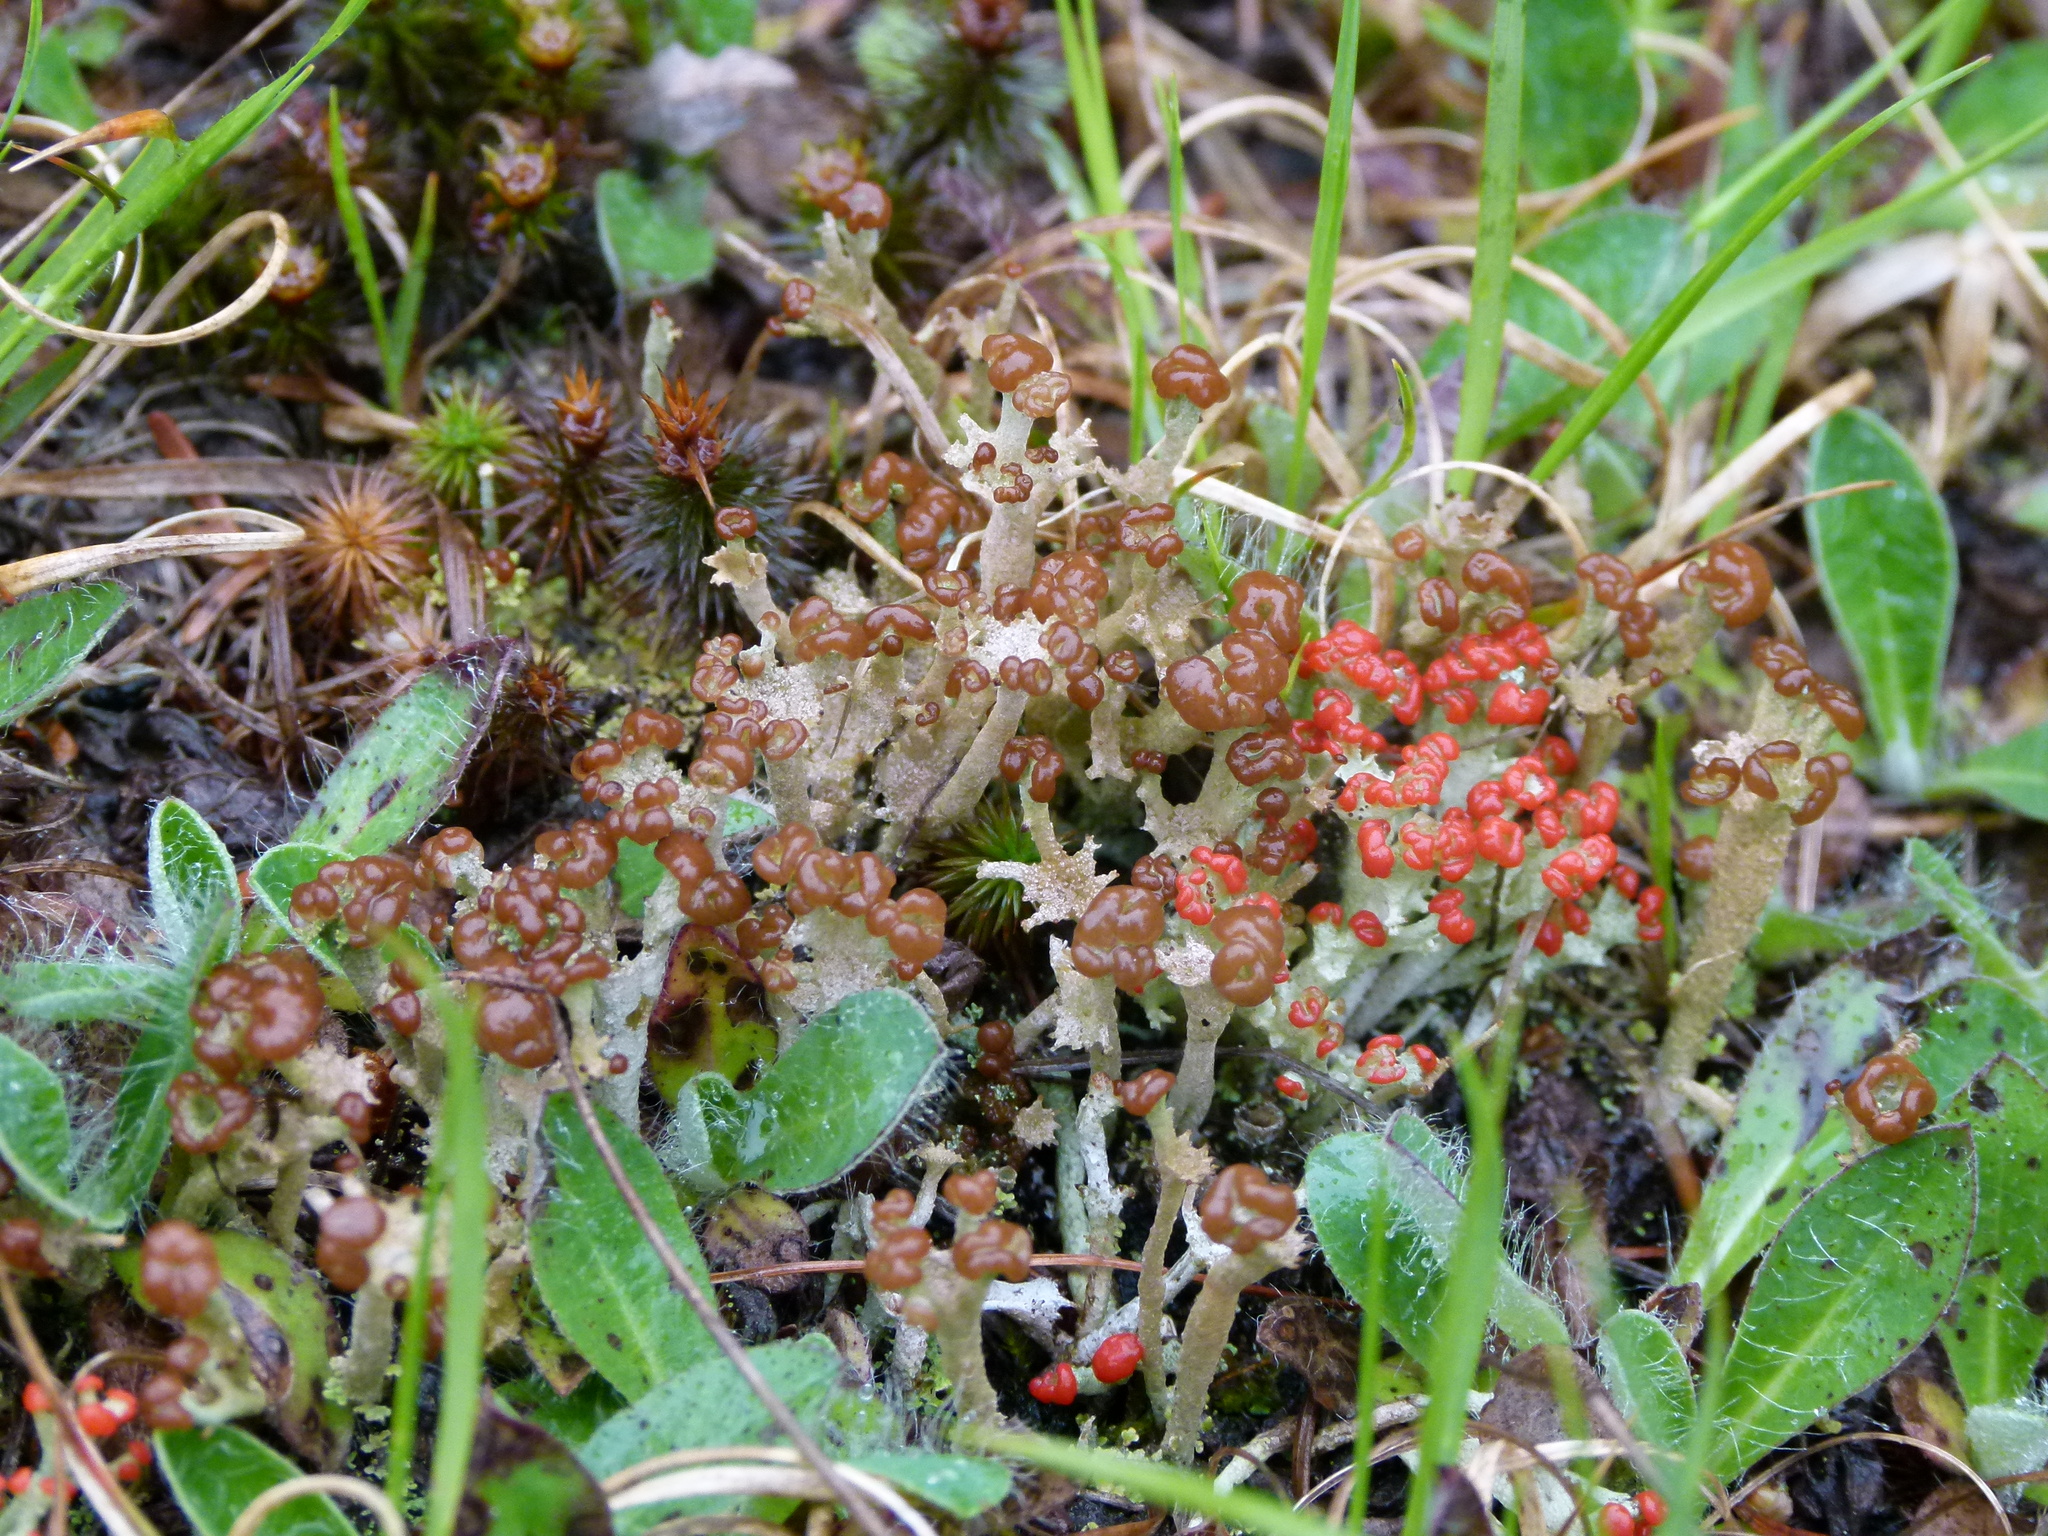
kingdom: Fungi
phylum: Ascomycota
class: Lecanoromycetes
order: Lecanorales
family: Cladoniaceae
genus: Cladonia
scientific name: Cladonia cristatella
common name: British soldier lichen
